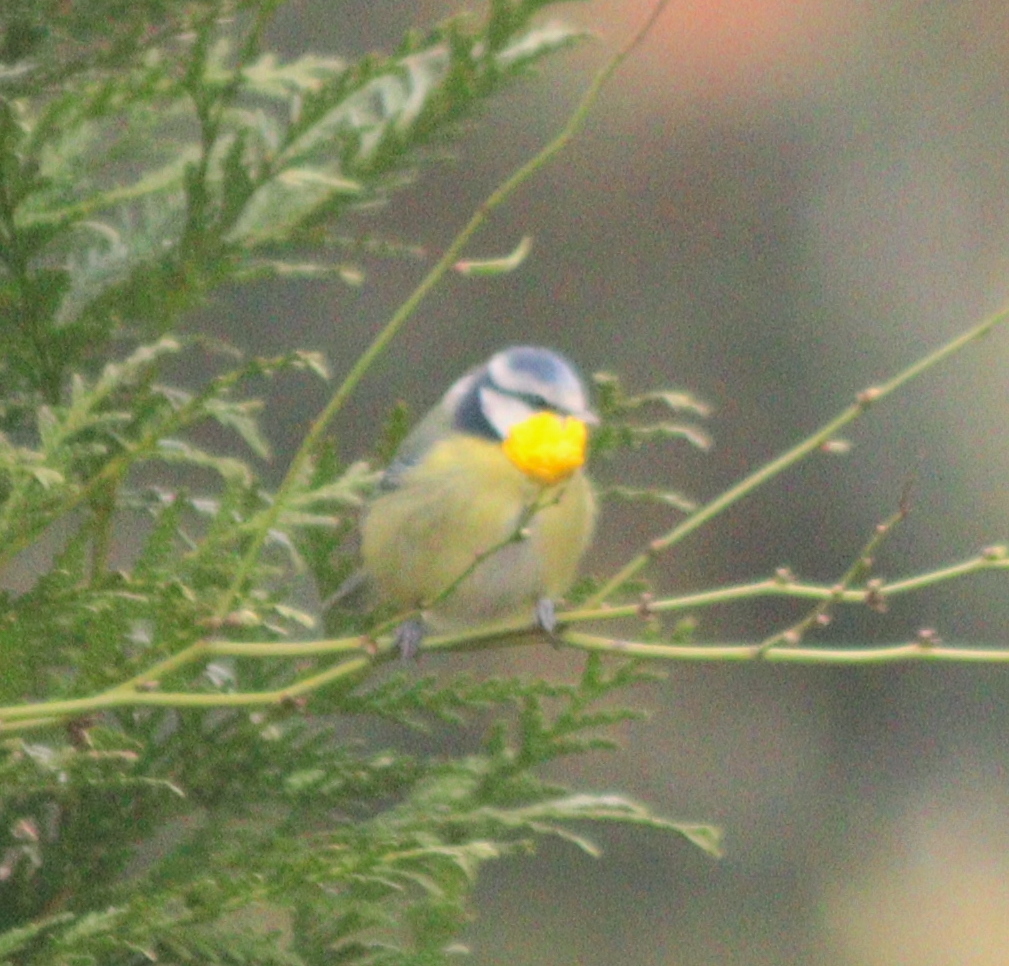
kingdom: Animalia
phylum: Chordata
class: Aves
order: Passeriformes
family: Paridae
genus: Cyanistes
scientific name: Cyanistes caeruleus
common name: Eurasian blue tit
